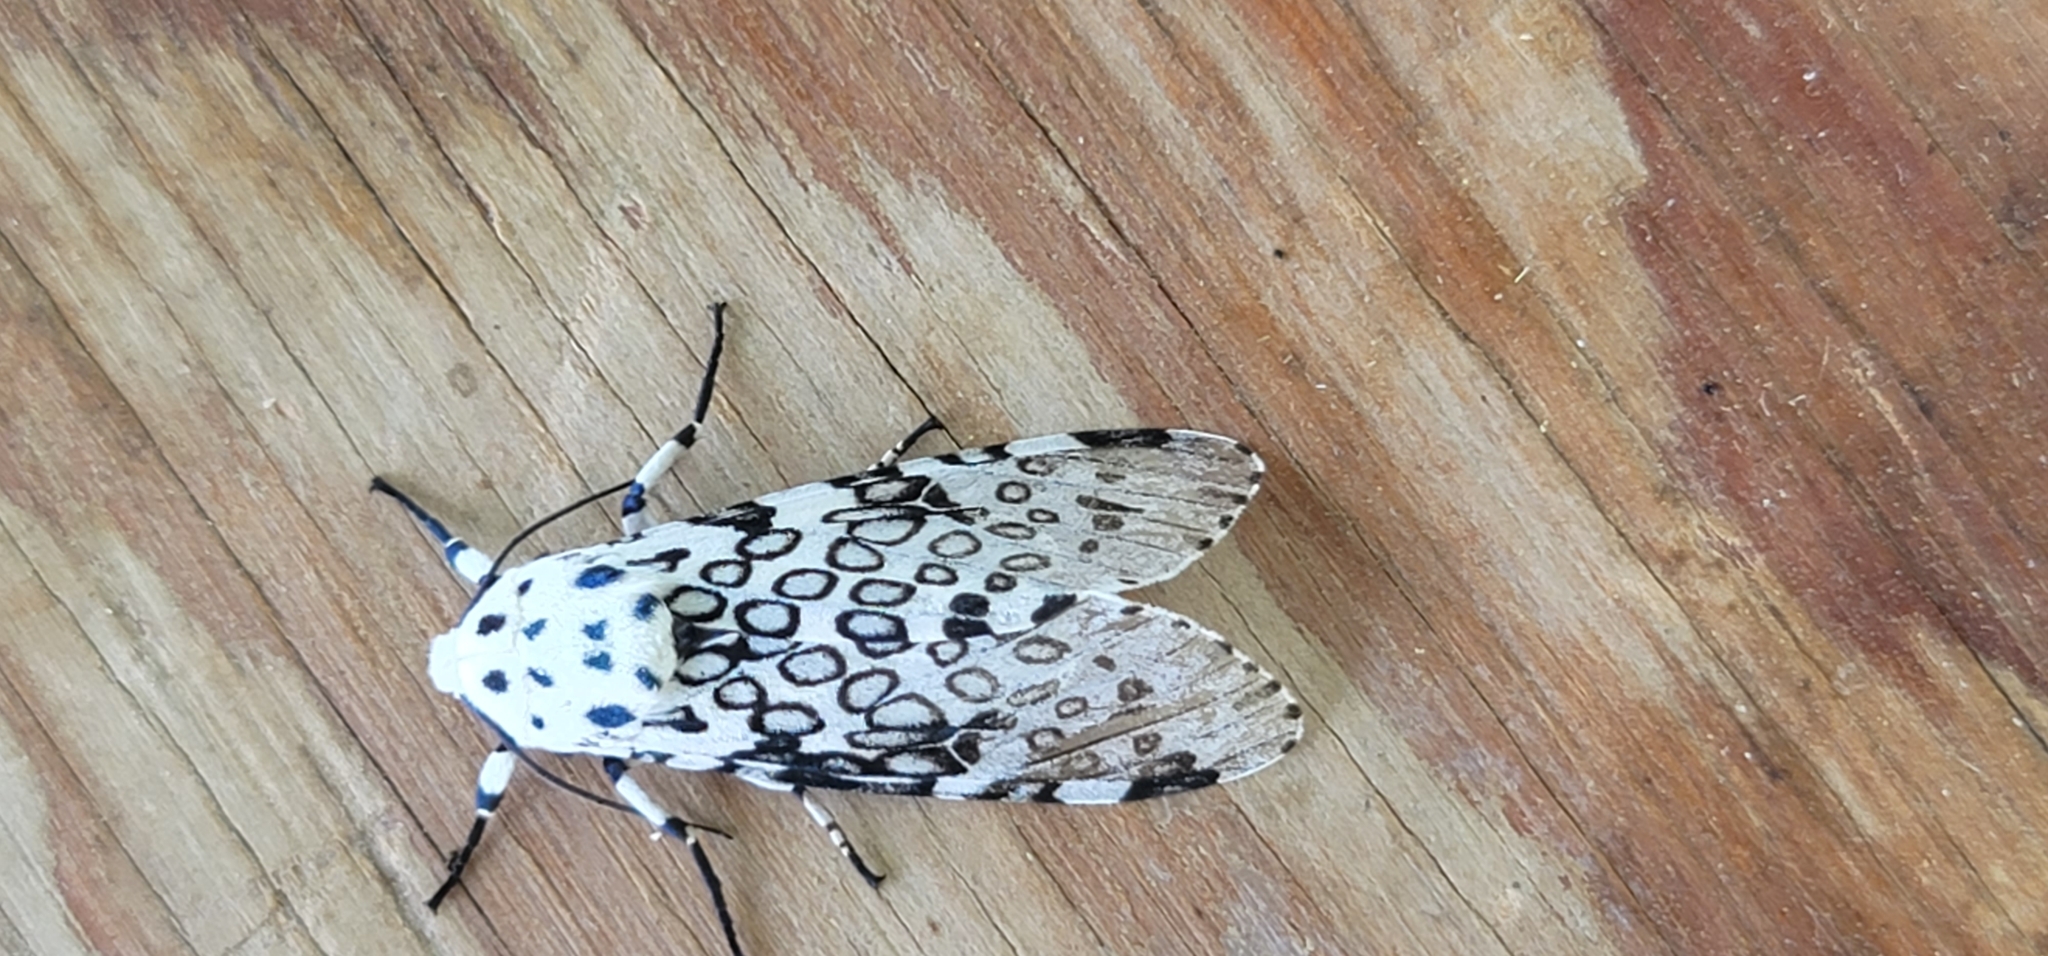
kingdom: Animalia
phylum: Arthropoda
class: Insecta
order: Lepidoptera
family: Erebidae
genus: Hypercompe
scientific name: Hypercompe scribonia
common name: Giant leopard moth
